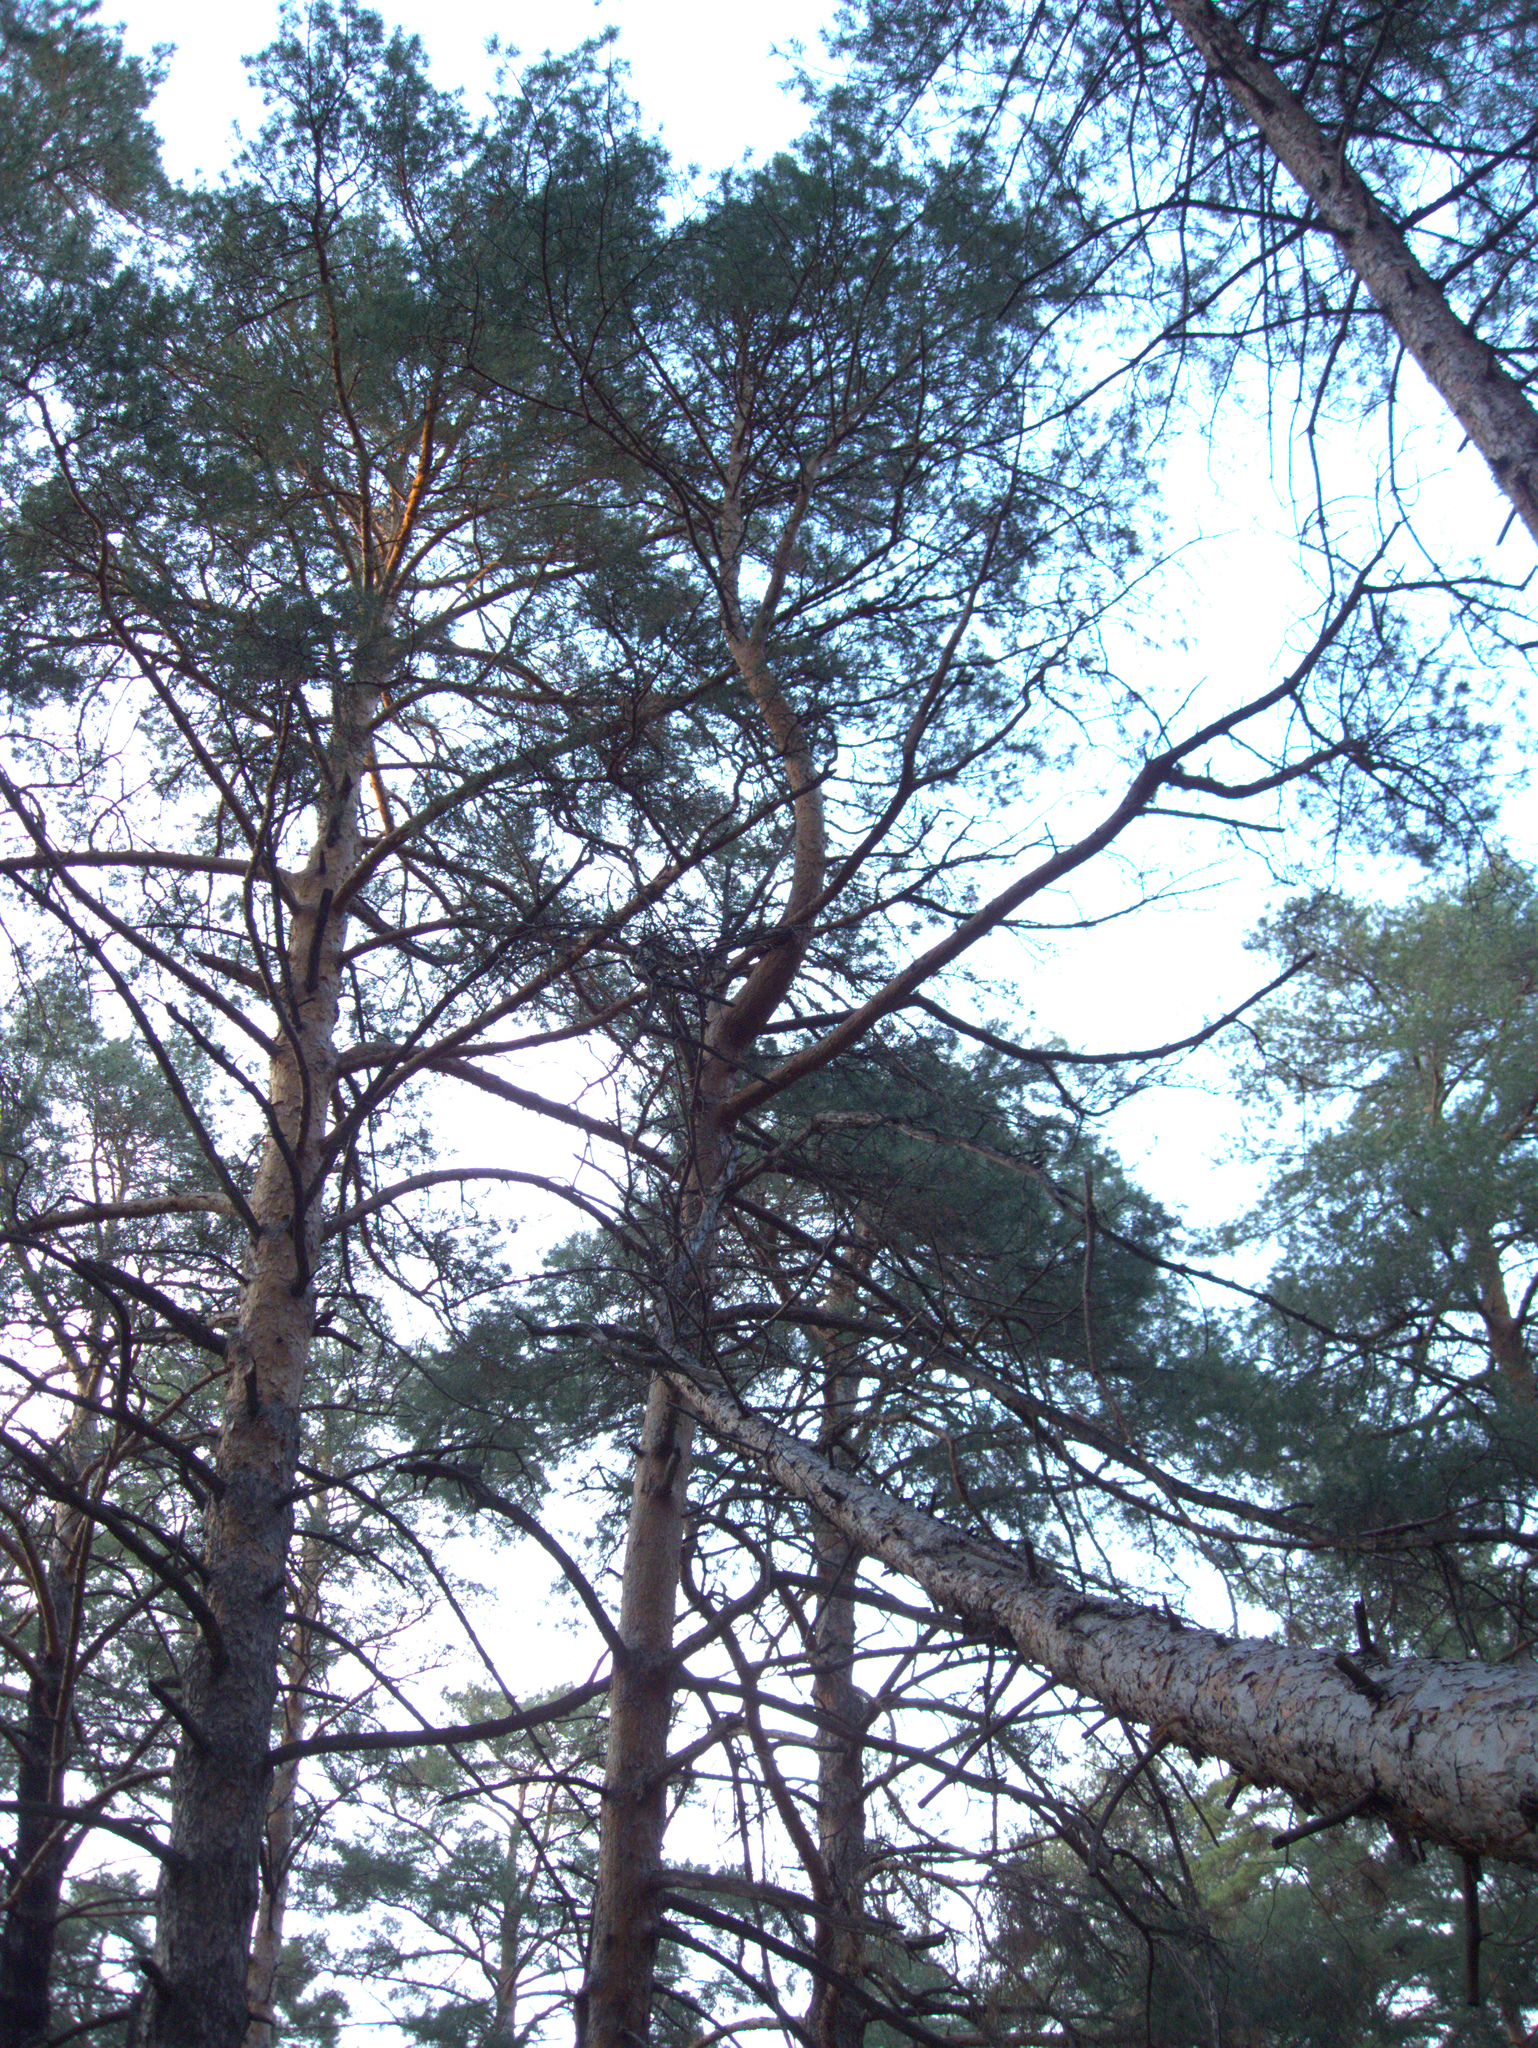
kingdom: Plantae
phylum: Tracheophyta
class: Pinopsida
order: Pinales
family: Pinaceae
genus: Pinus
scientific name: Pinus sylvestris
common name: Scots pine
